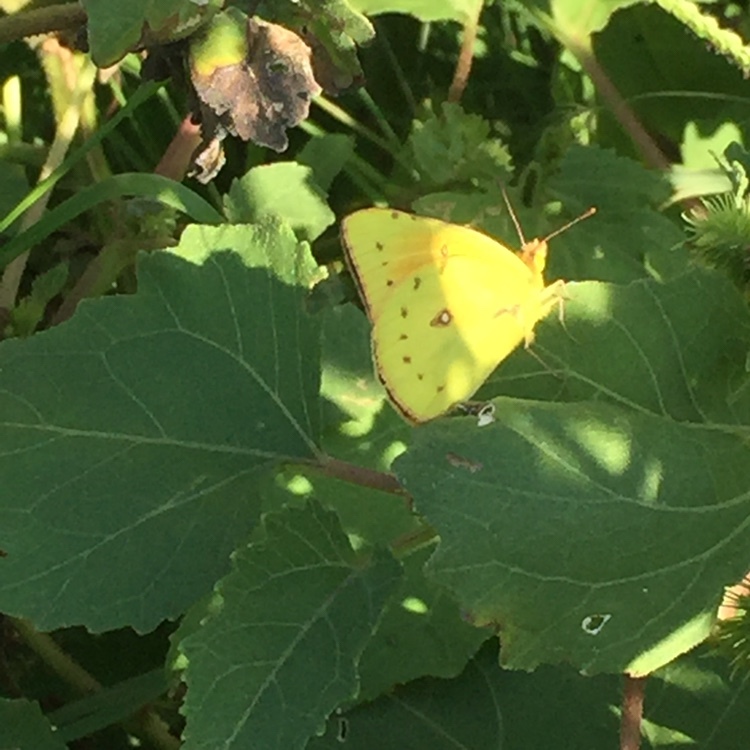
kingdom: Animalia
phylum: Arthropoda
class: Insecta
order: Lepidoptera
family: Pieridae
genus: Colias
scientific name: Colias lesbia
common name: Lesbia clouded yellow
